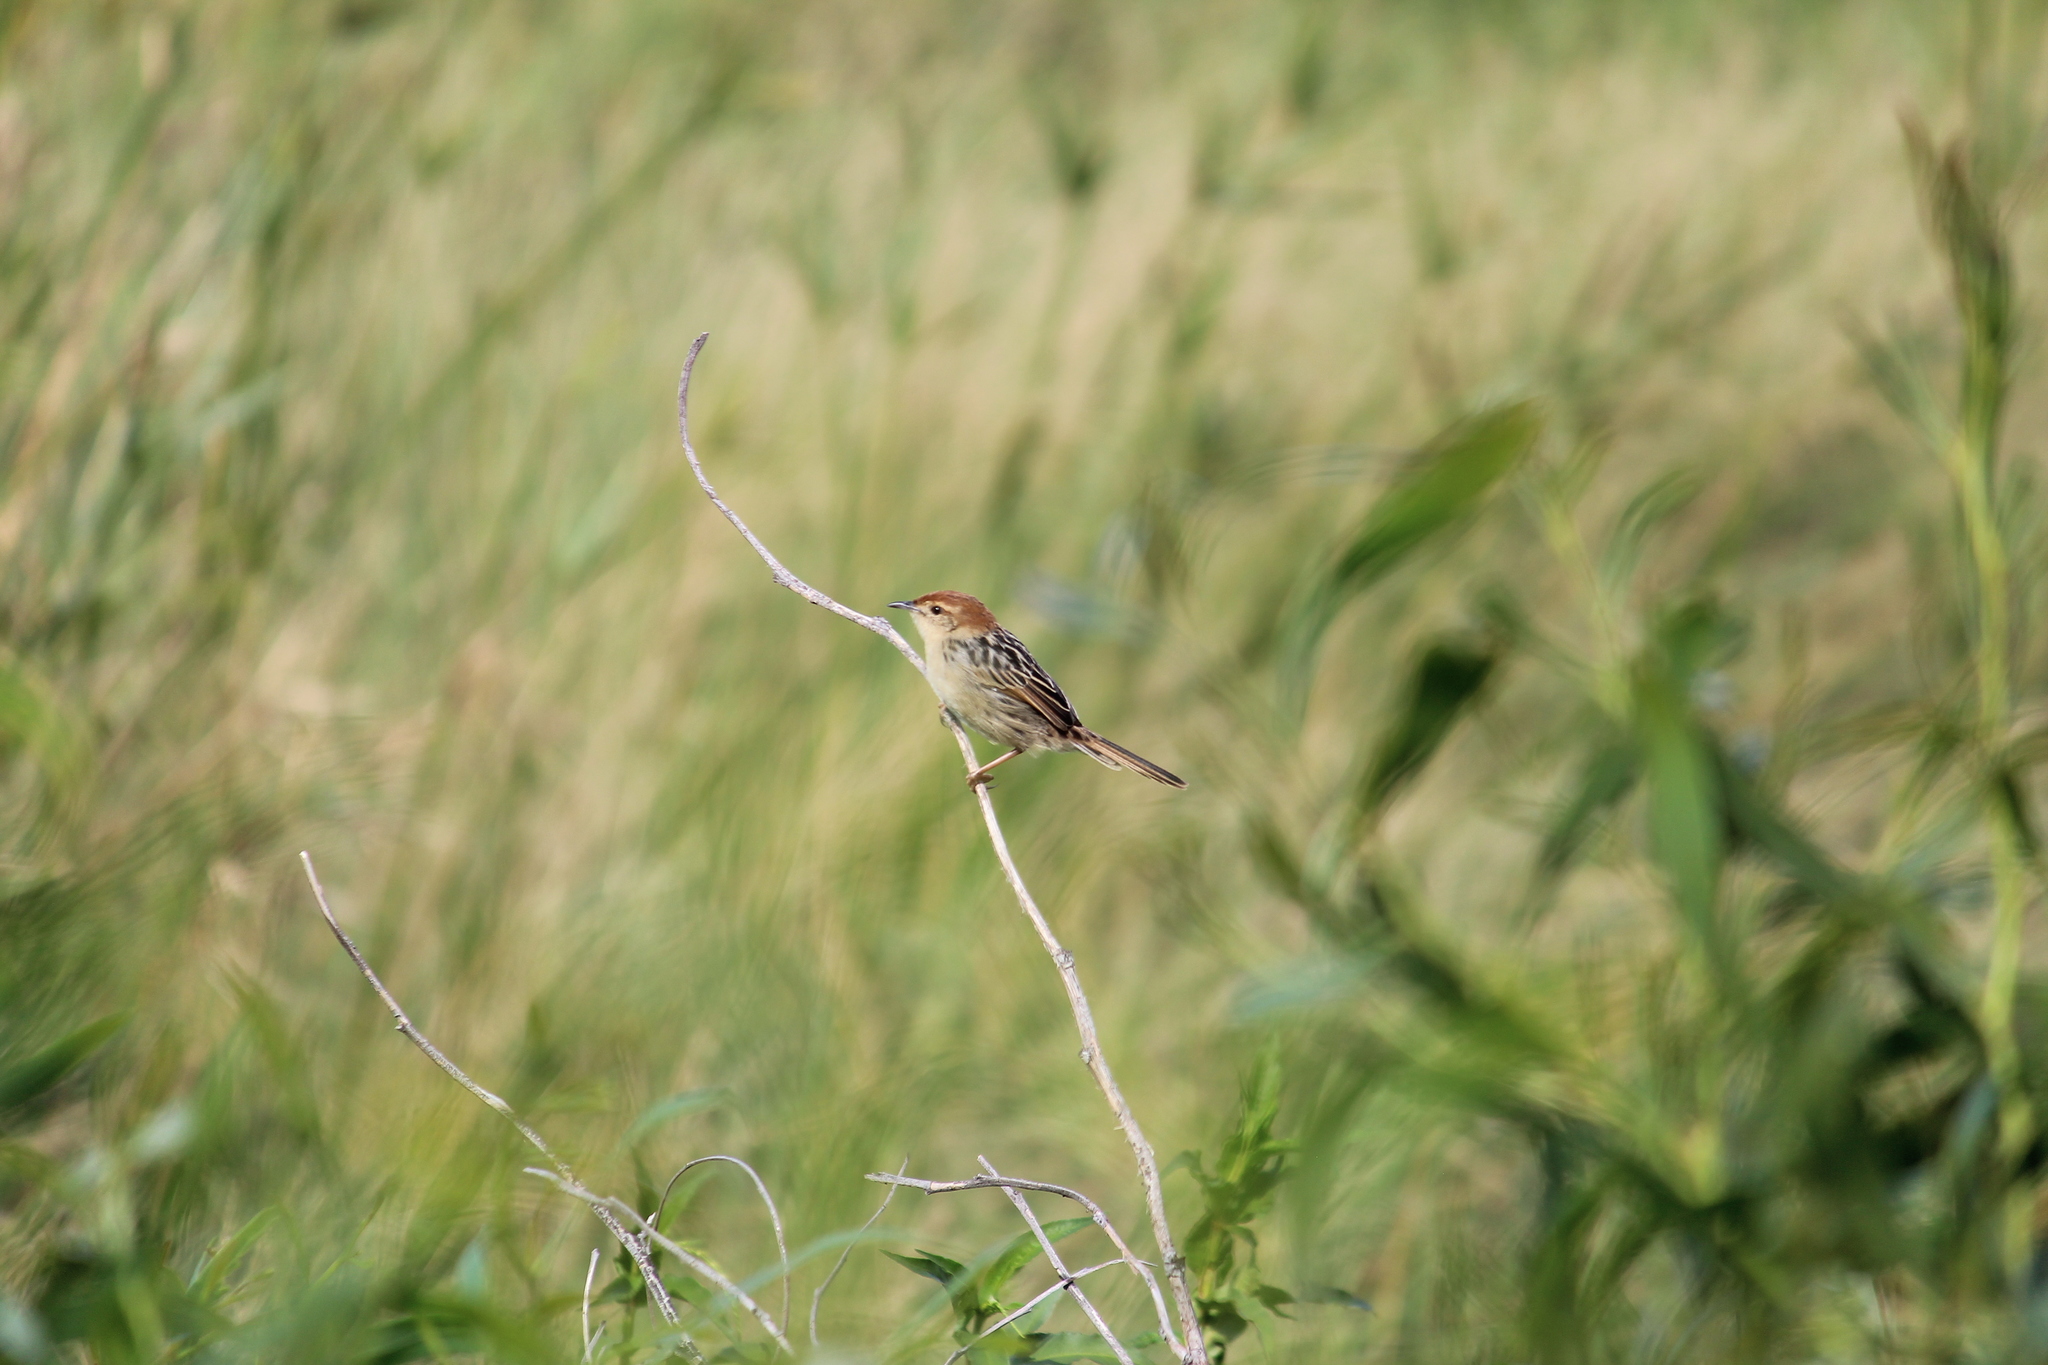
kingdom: Animalia
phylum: Chordata
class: Aves
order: Passeriformes
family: Cisticolidae
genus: Cisticola
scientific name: Cisticola tinniens
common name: Levaillant's cisticola
